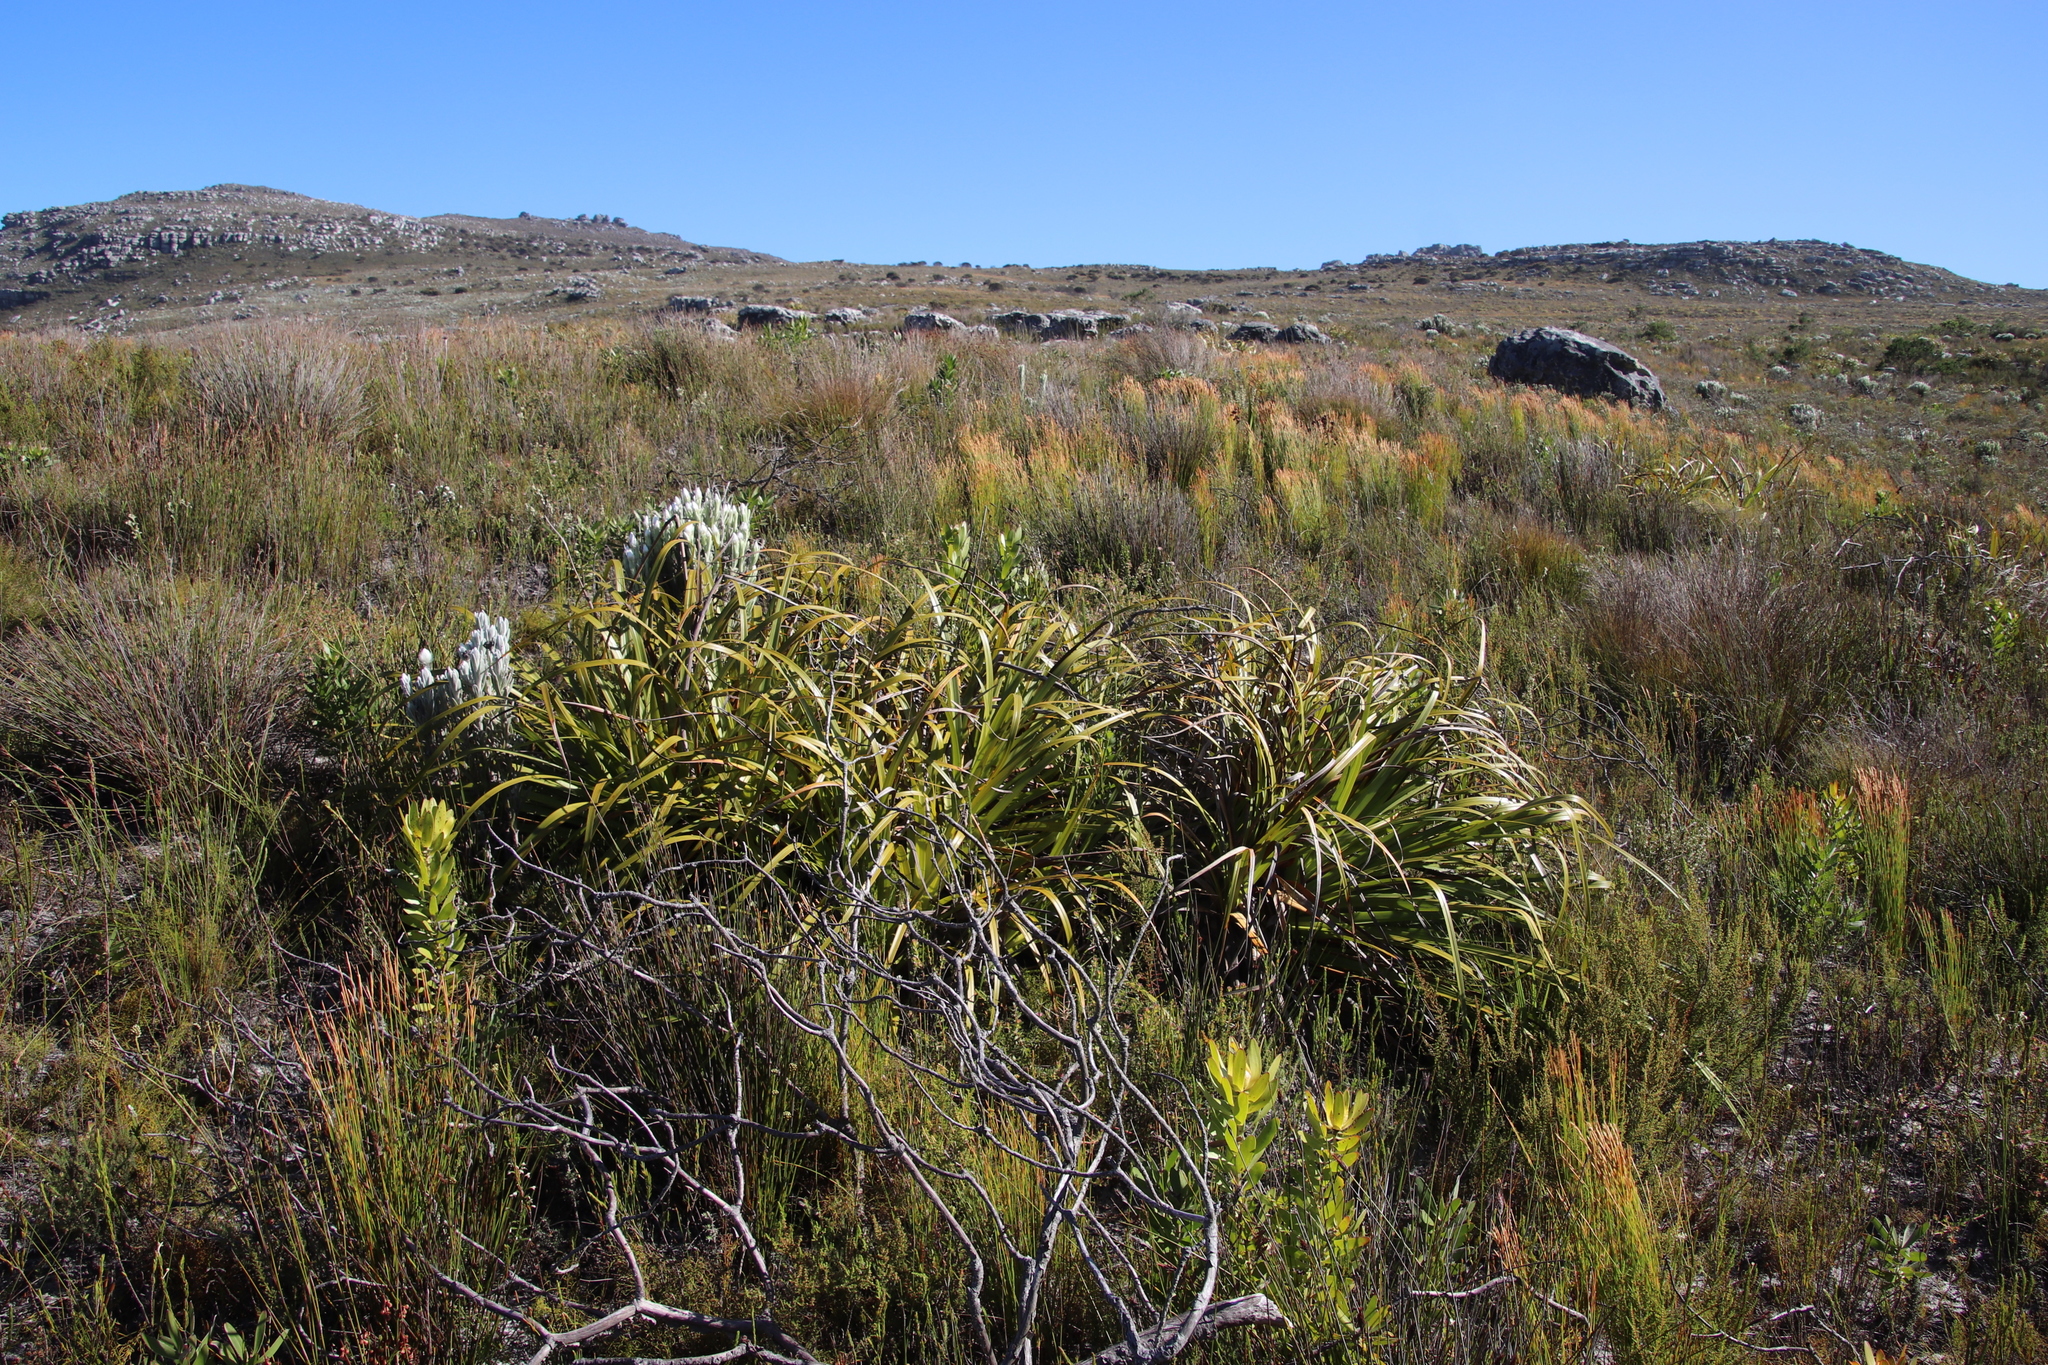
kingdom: Plantae
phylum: Tracheophyta
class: Liliopsida
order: Poales
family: Cyperaceae
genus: Tetraria
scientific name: Tetraria thermalis
